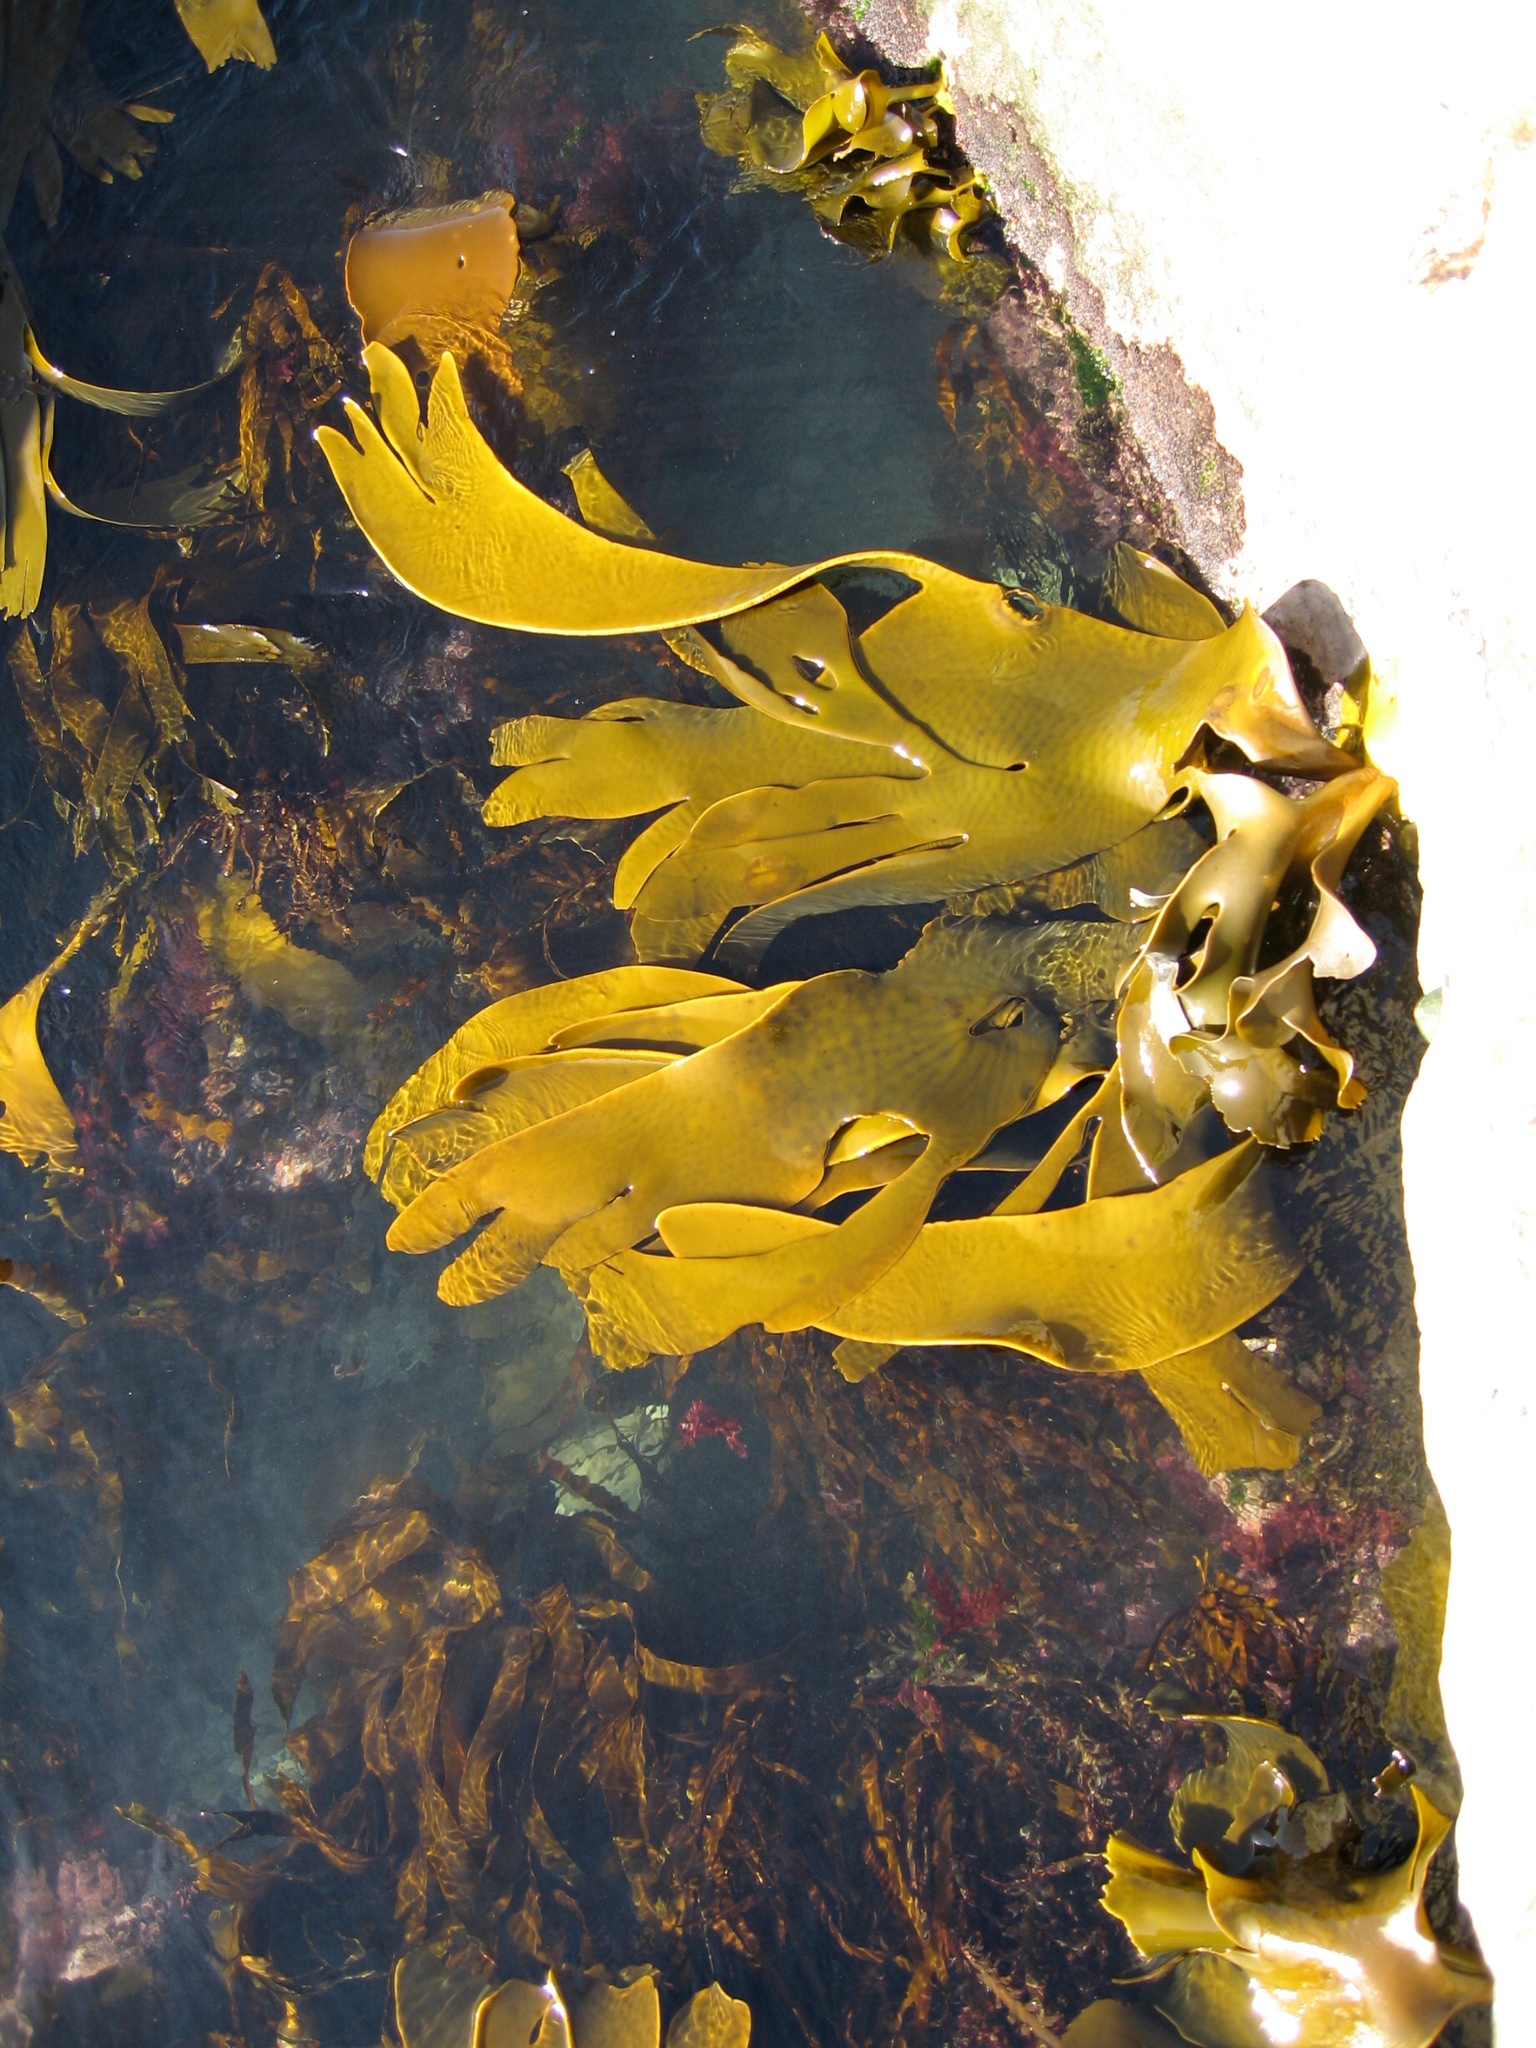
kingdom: Chromista
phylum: Ochrophyta
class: Phaeophyceae
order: Fucales
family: Durvillaeaceae
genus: Durvillaea
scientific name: Durvillaea poha
